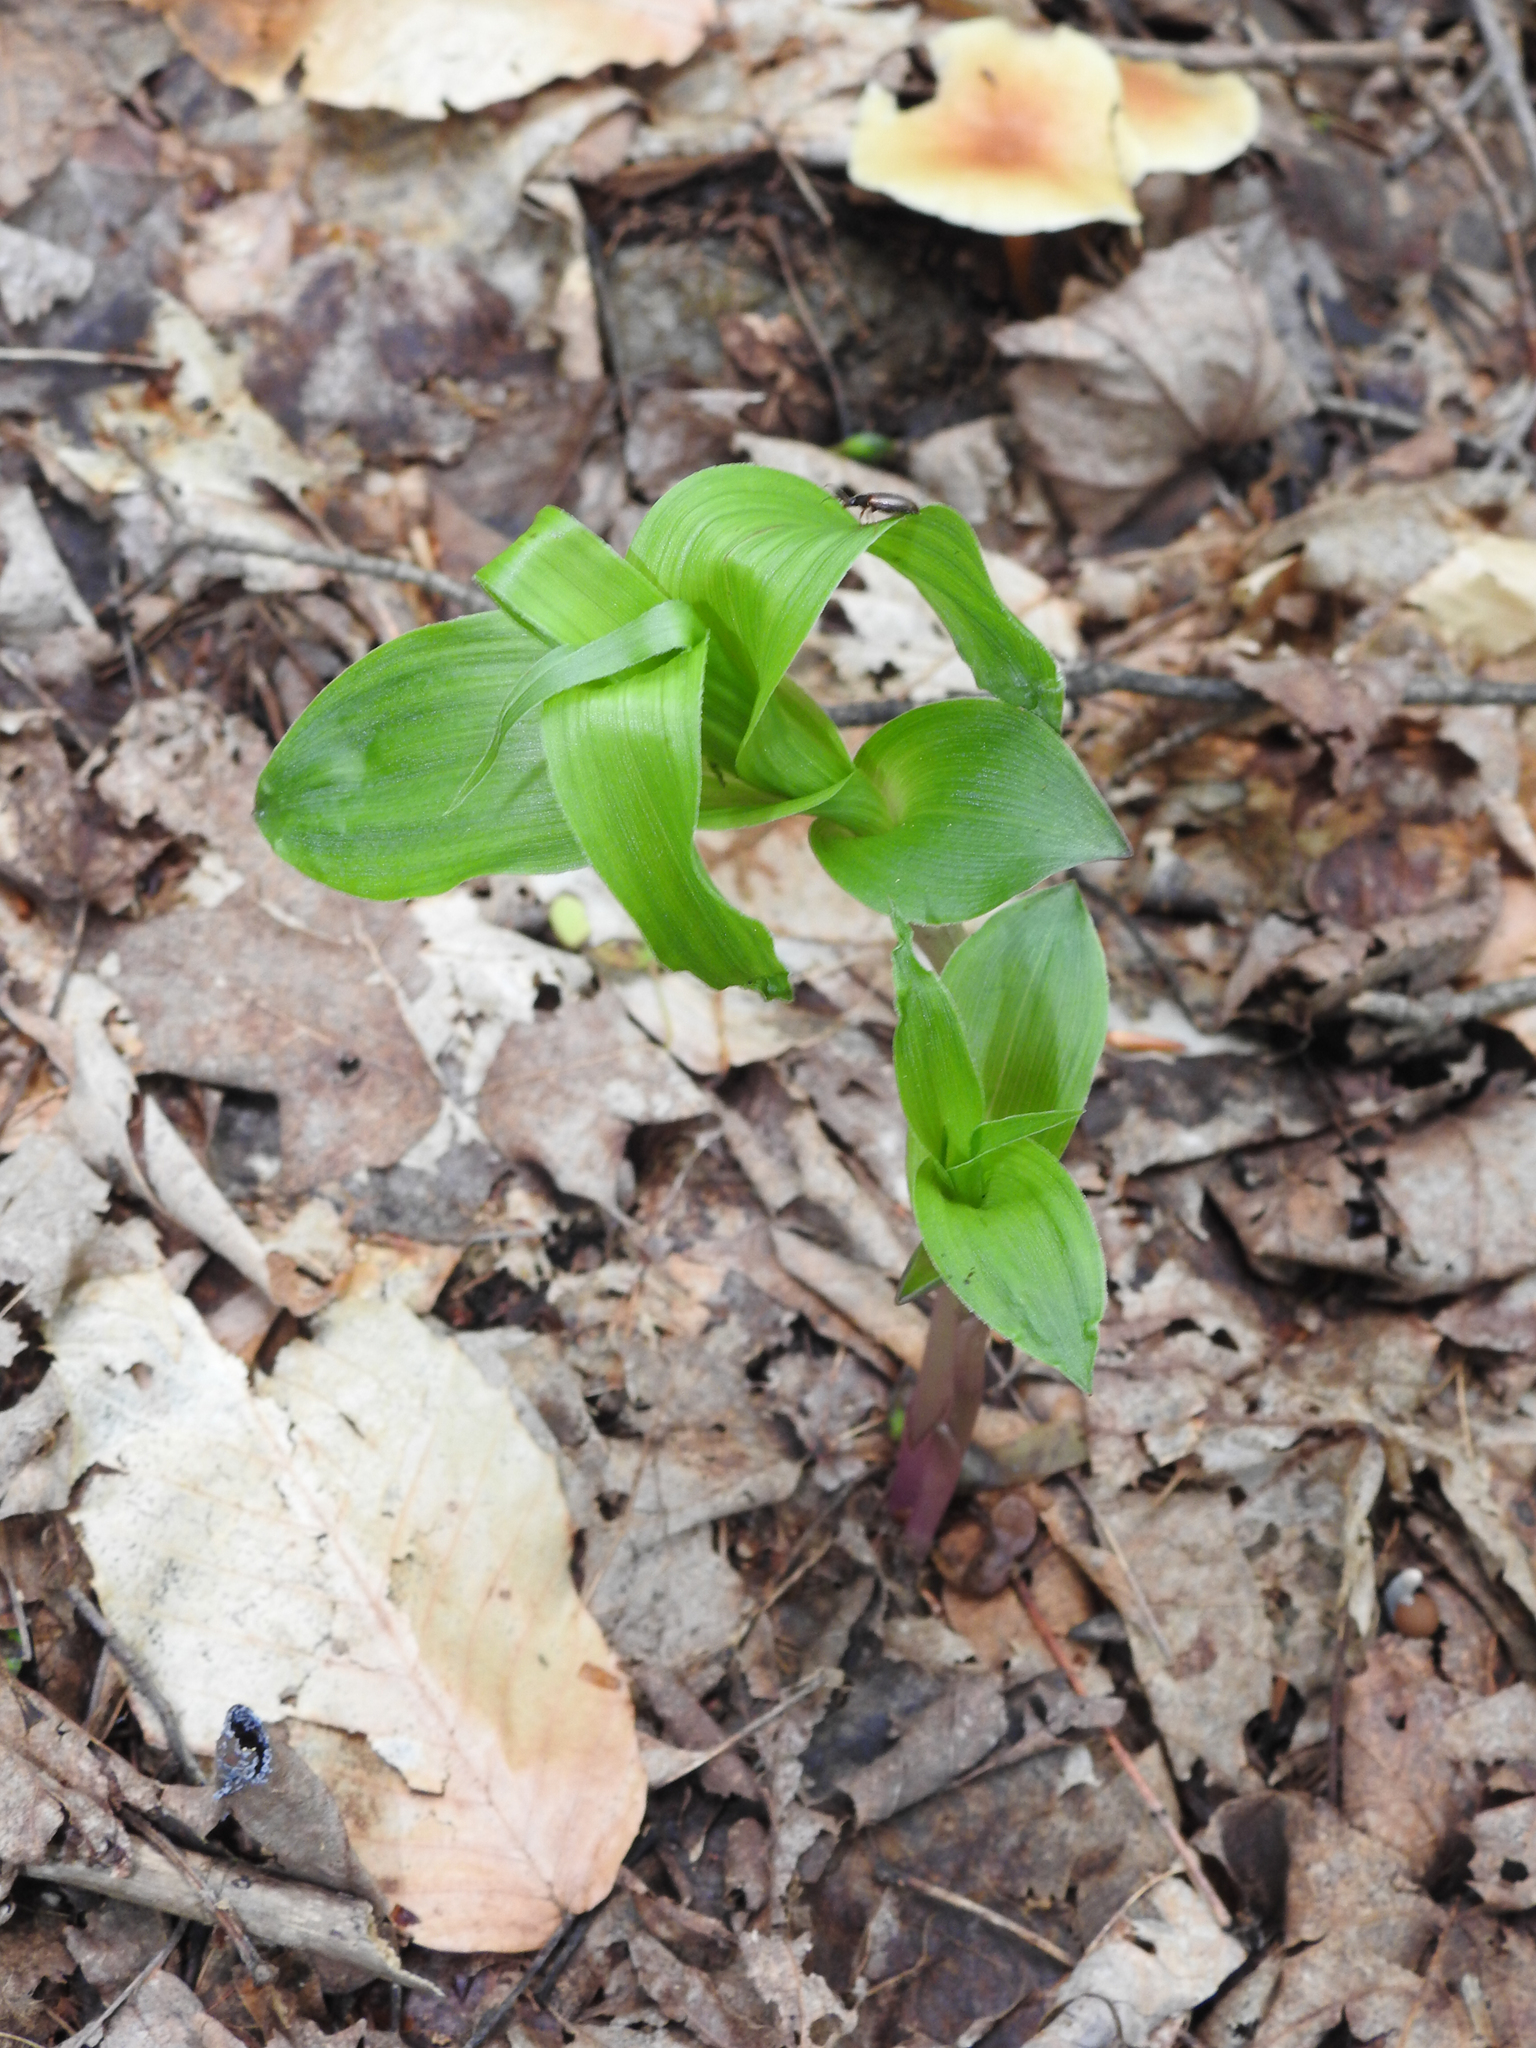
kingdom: Plantae
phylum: Tracheophyta
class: Liliopsida
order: Asparagales
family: Orchidaceae
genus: Epipactis
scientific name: Epipactis helleborine
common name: Broad-leaved helleborine
